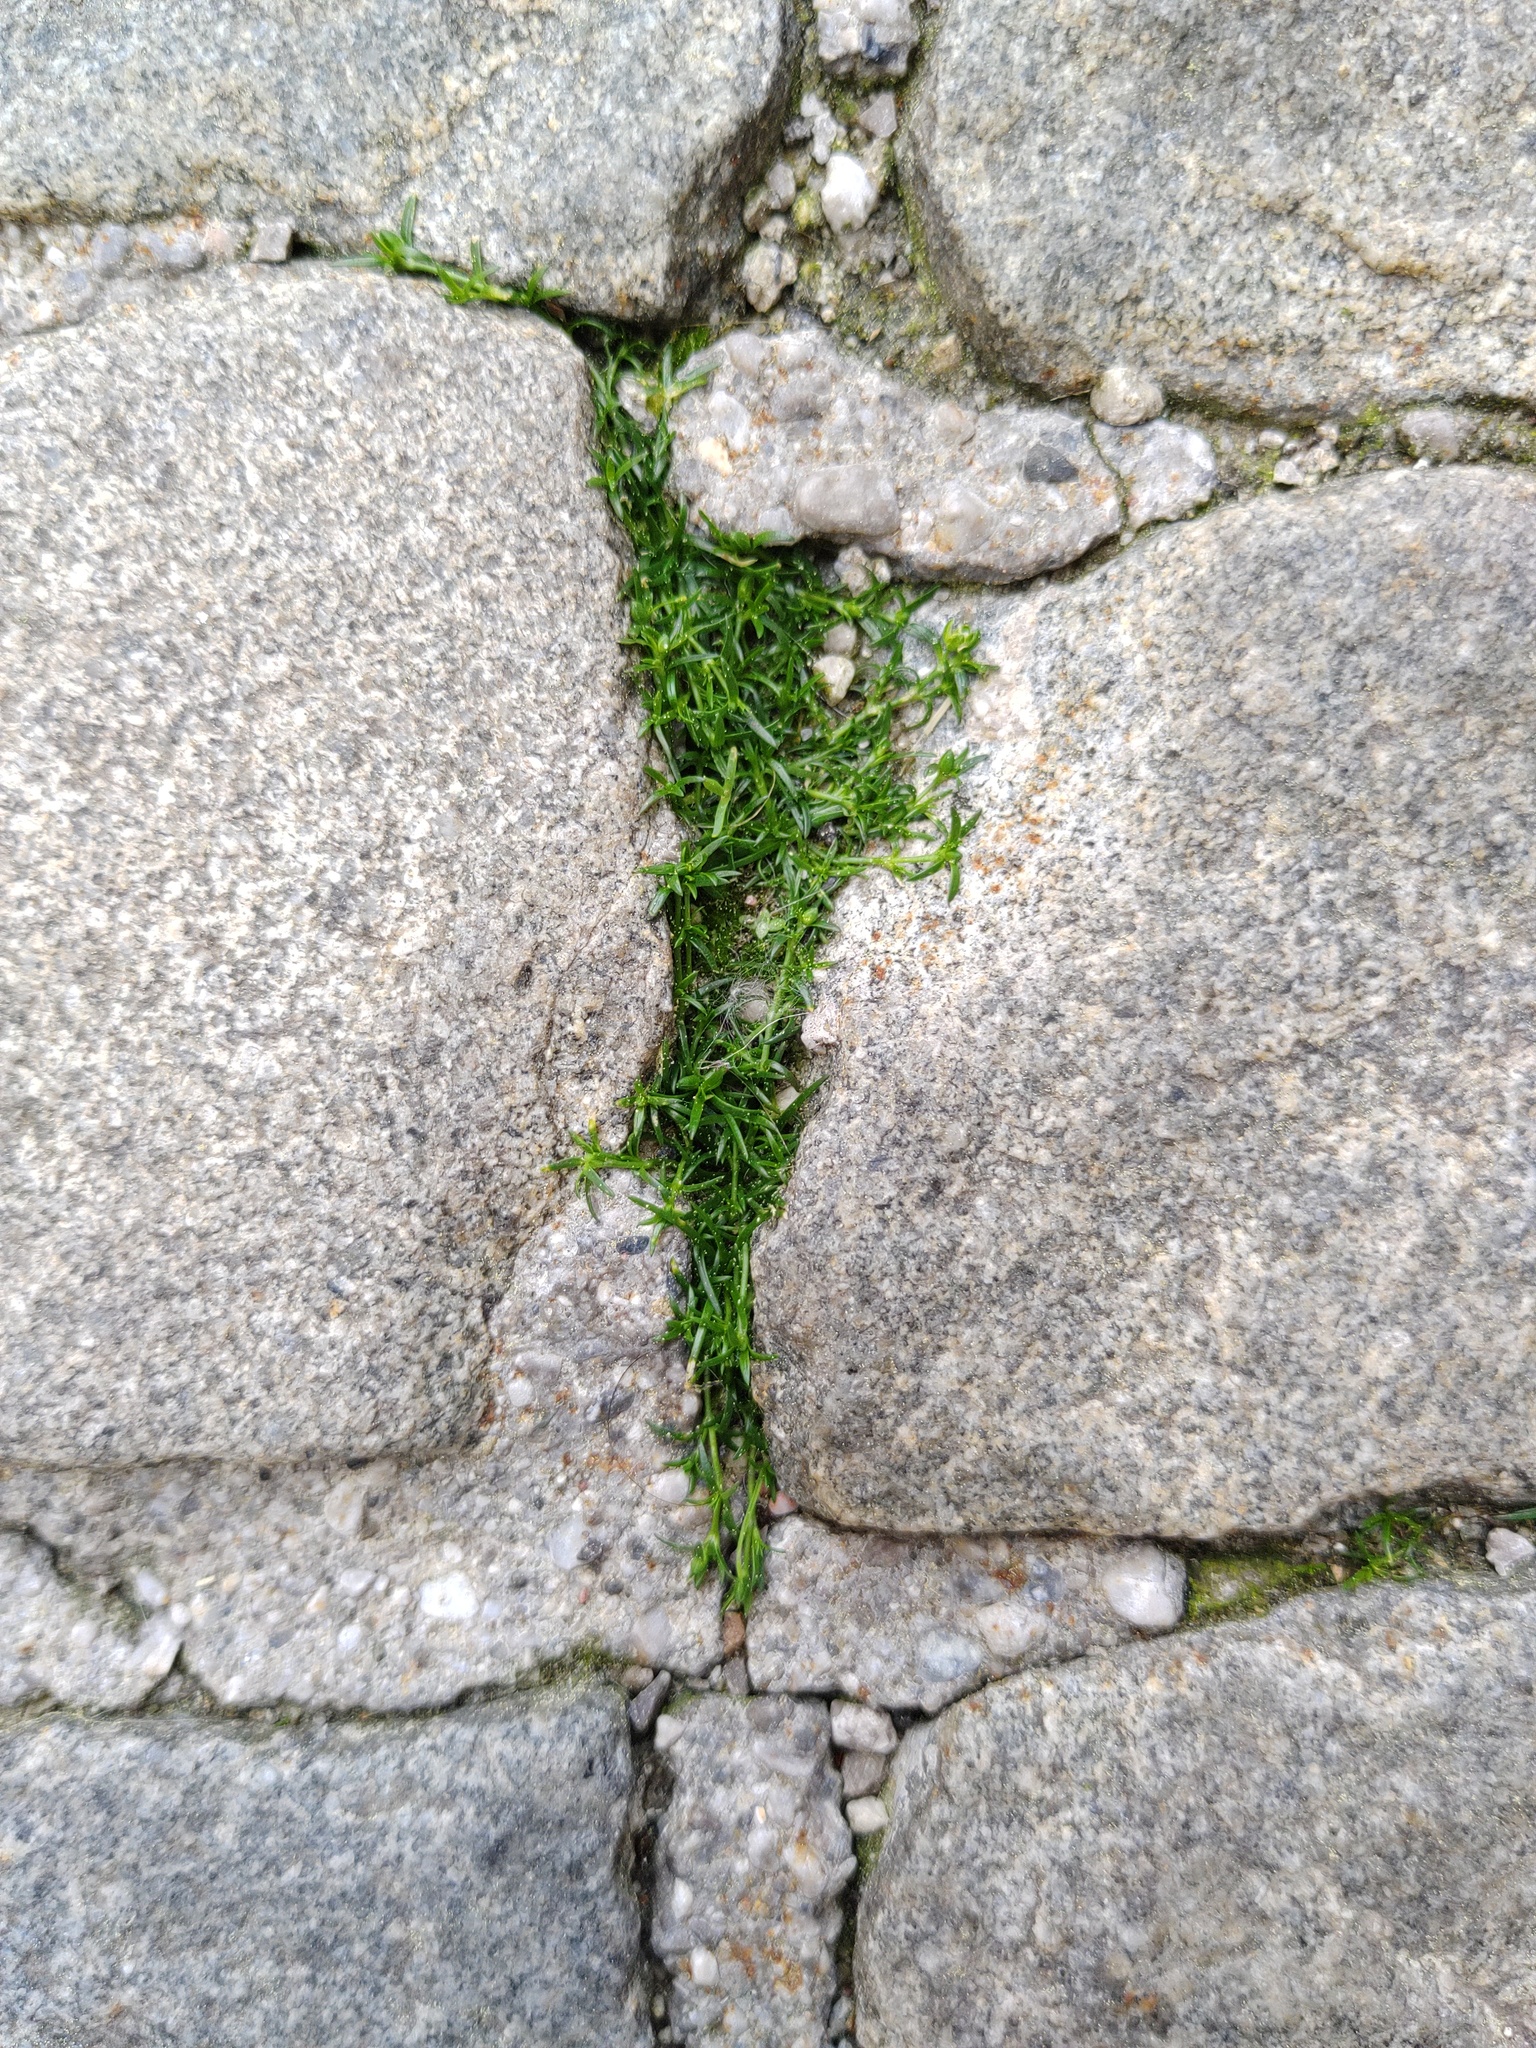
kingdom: Plantae
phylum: Tracheophyta
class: Magnoliopsida
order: Caryophyllales
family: Caryophyllaceae
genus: Sagina
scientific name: Sagina procumbens
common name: Procumbent pearlwort
